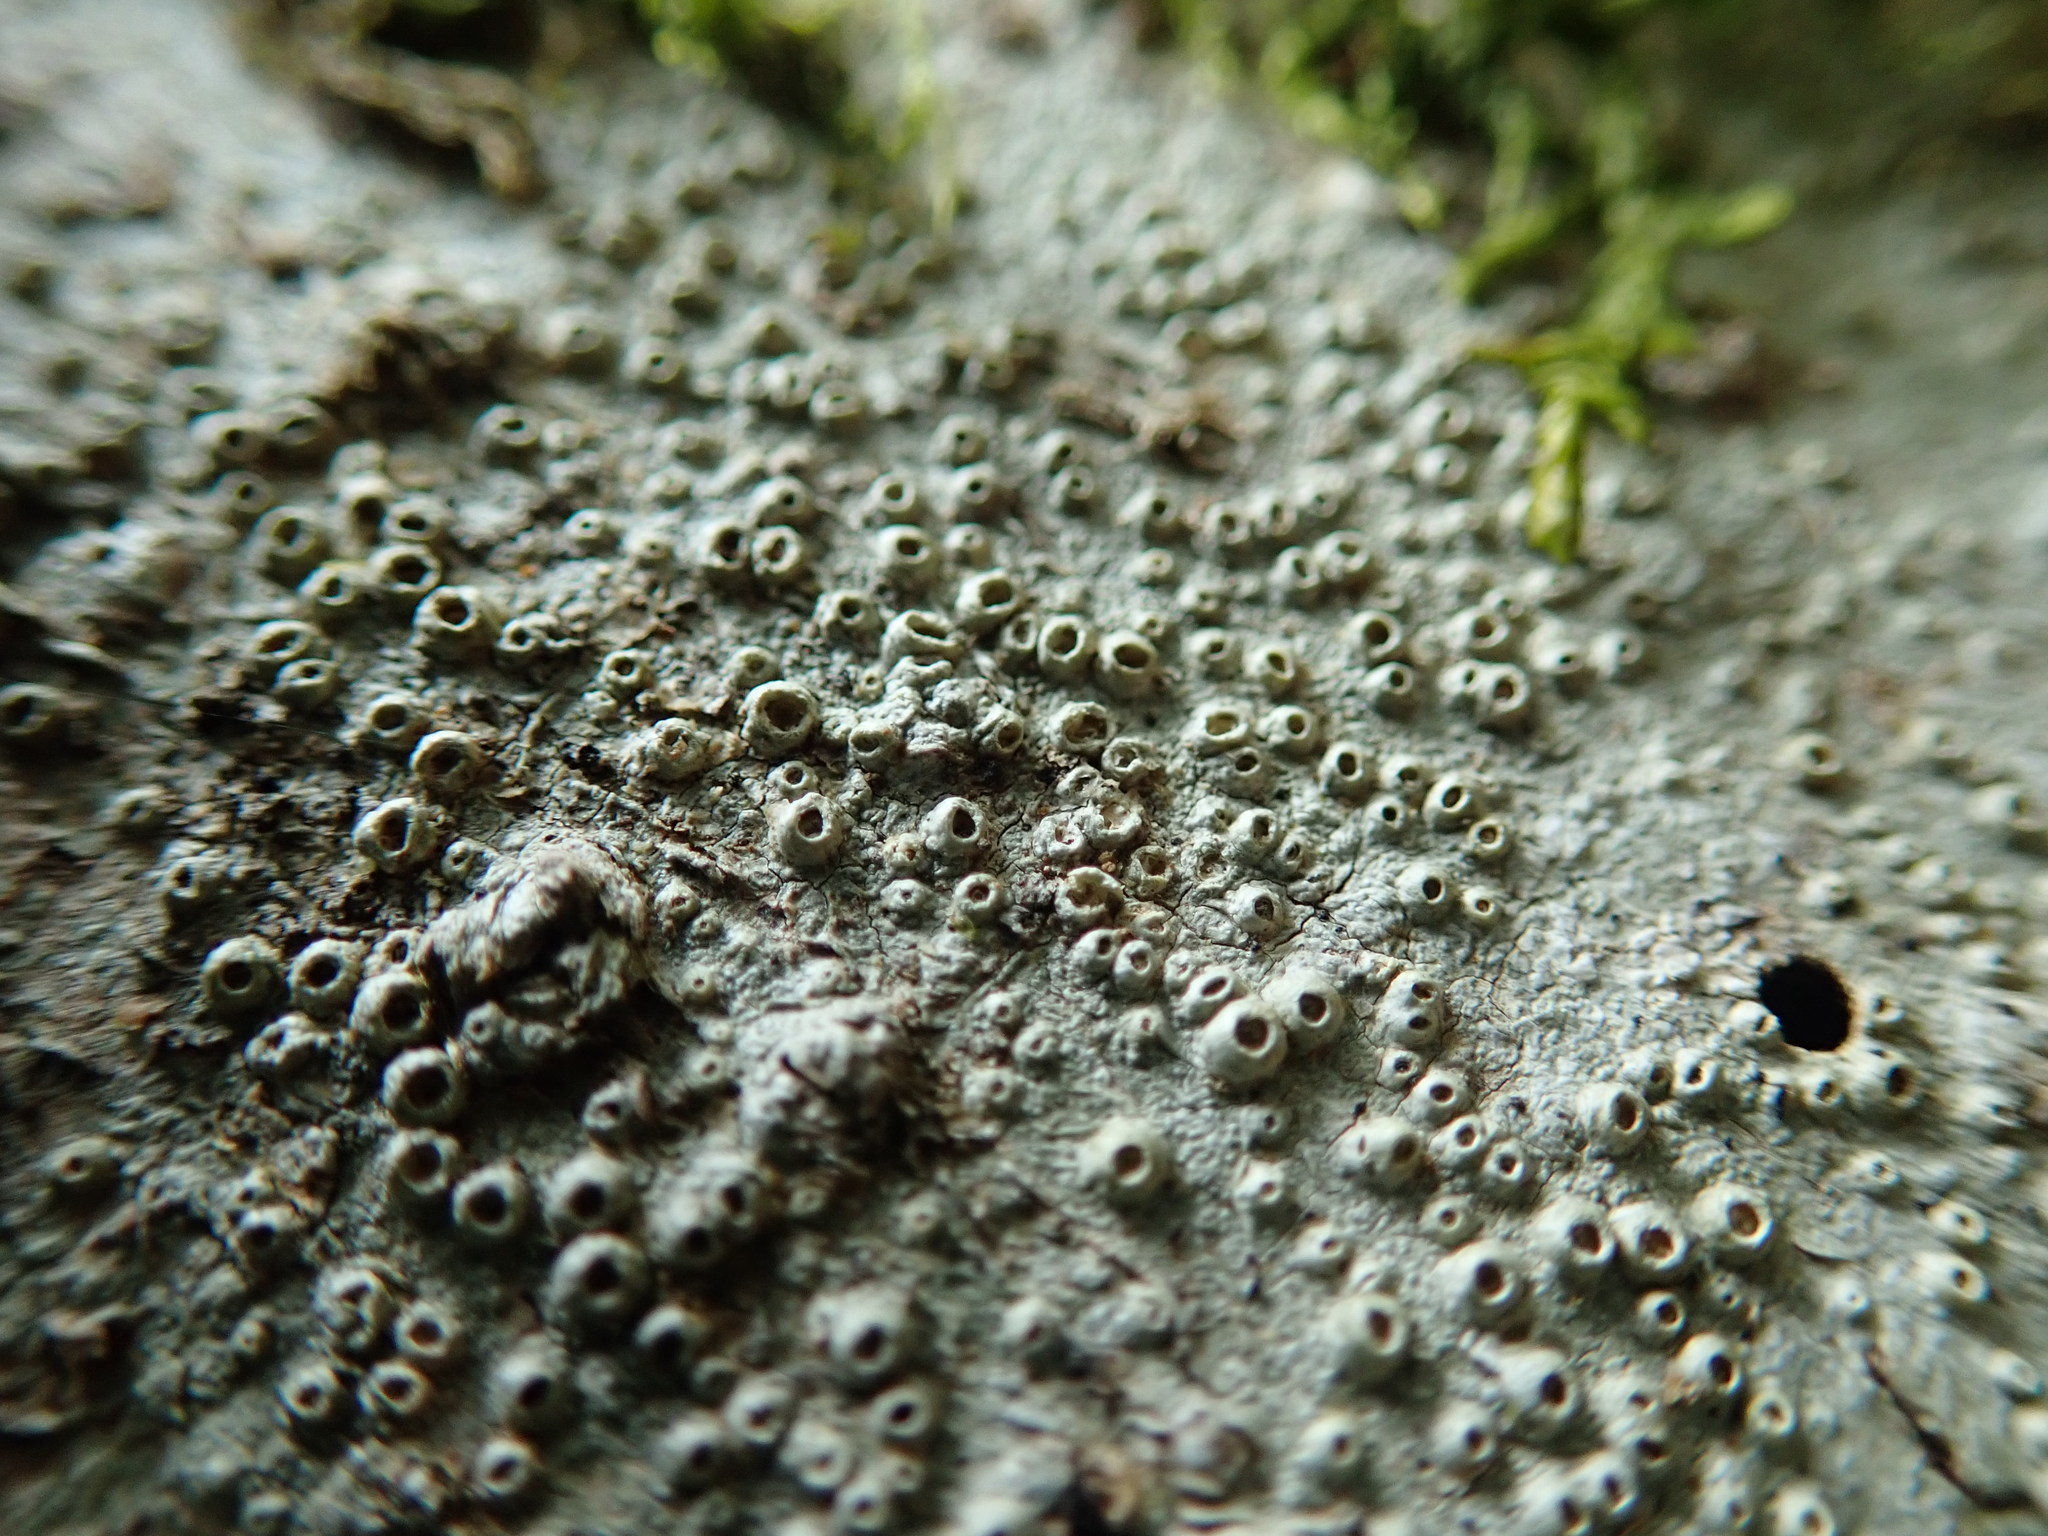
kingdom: Fungi
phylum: Ascomycota
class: Lecanoromycetes
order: Ostropales
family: Graphidaceae
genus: Thelotrema
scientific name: Thelotrema lepadinum
